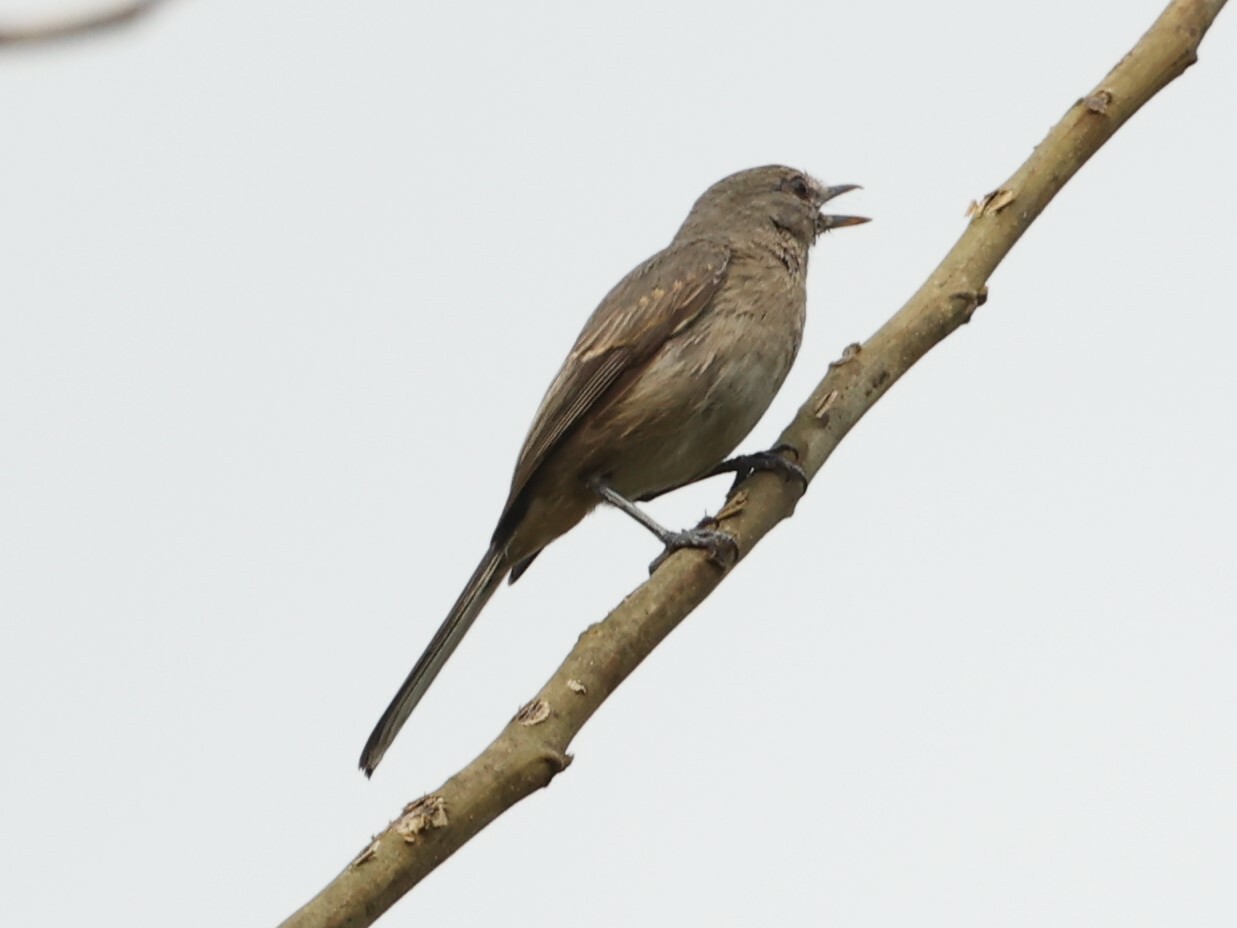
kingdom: Animalia
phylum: Chordata
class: Aves
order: Passeriformes
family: Muscicapidae
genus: Myioparus
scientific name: Myioparus plumbeus
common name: Grey tit-flycatcher
